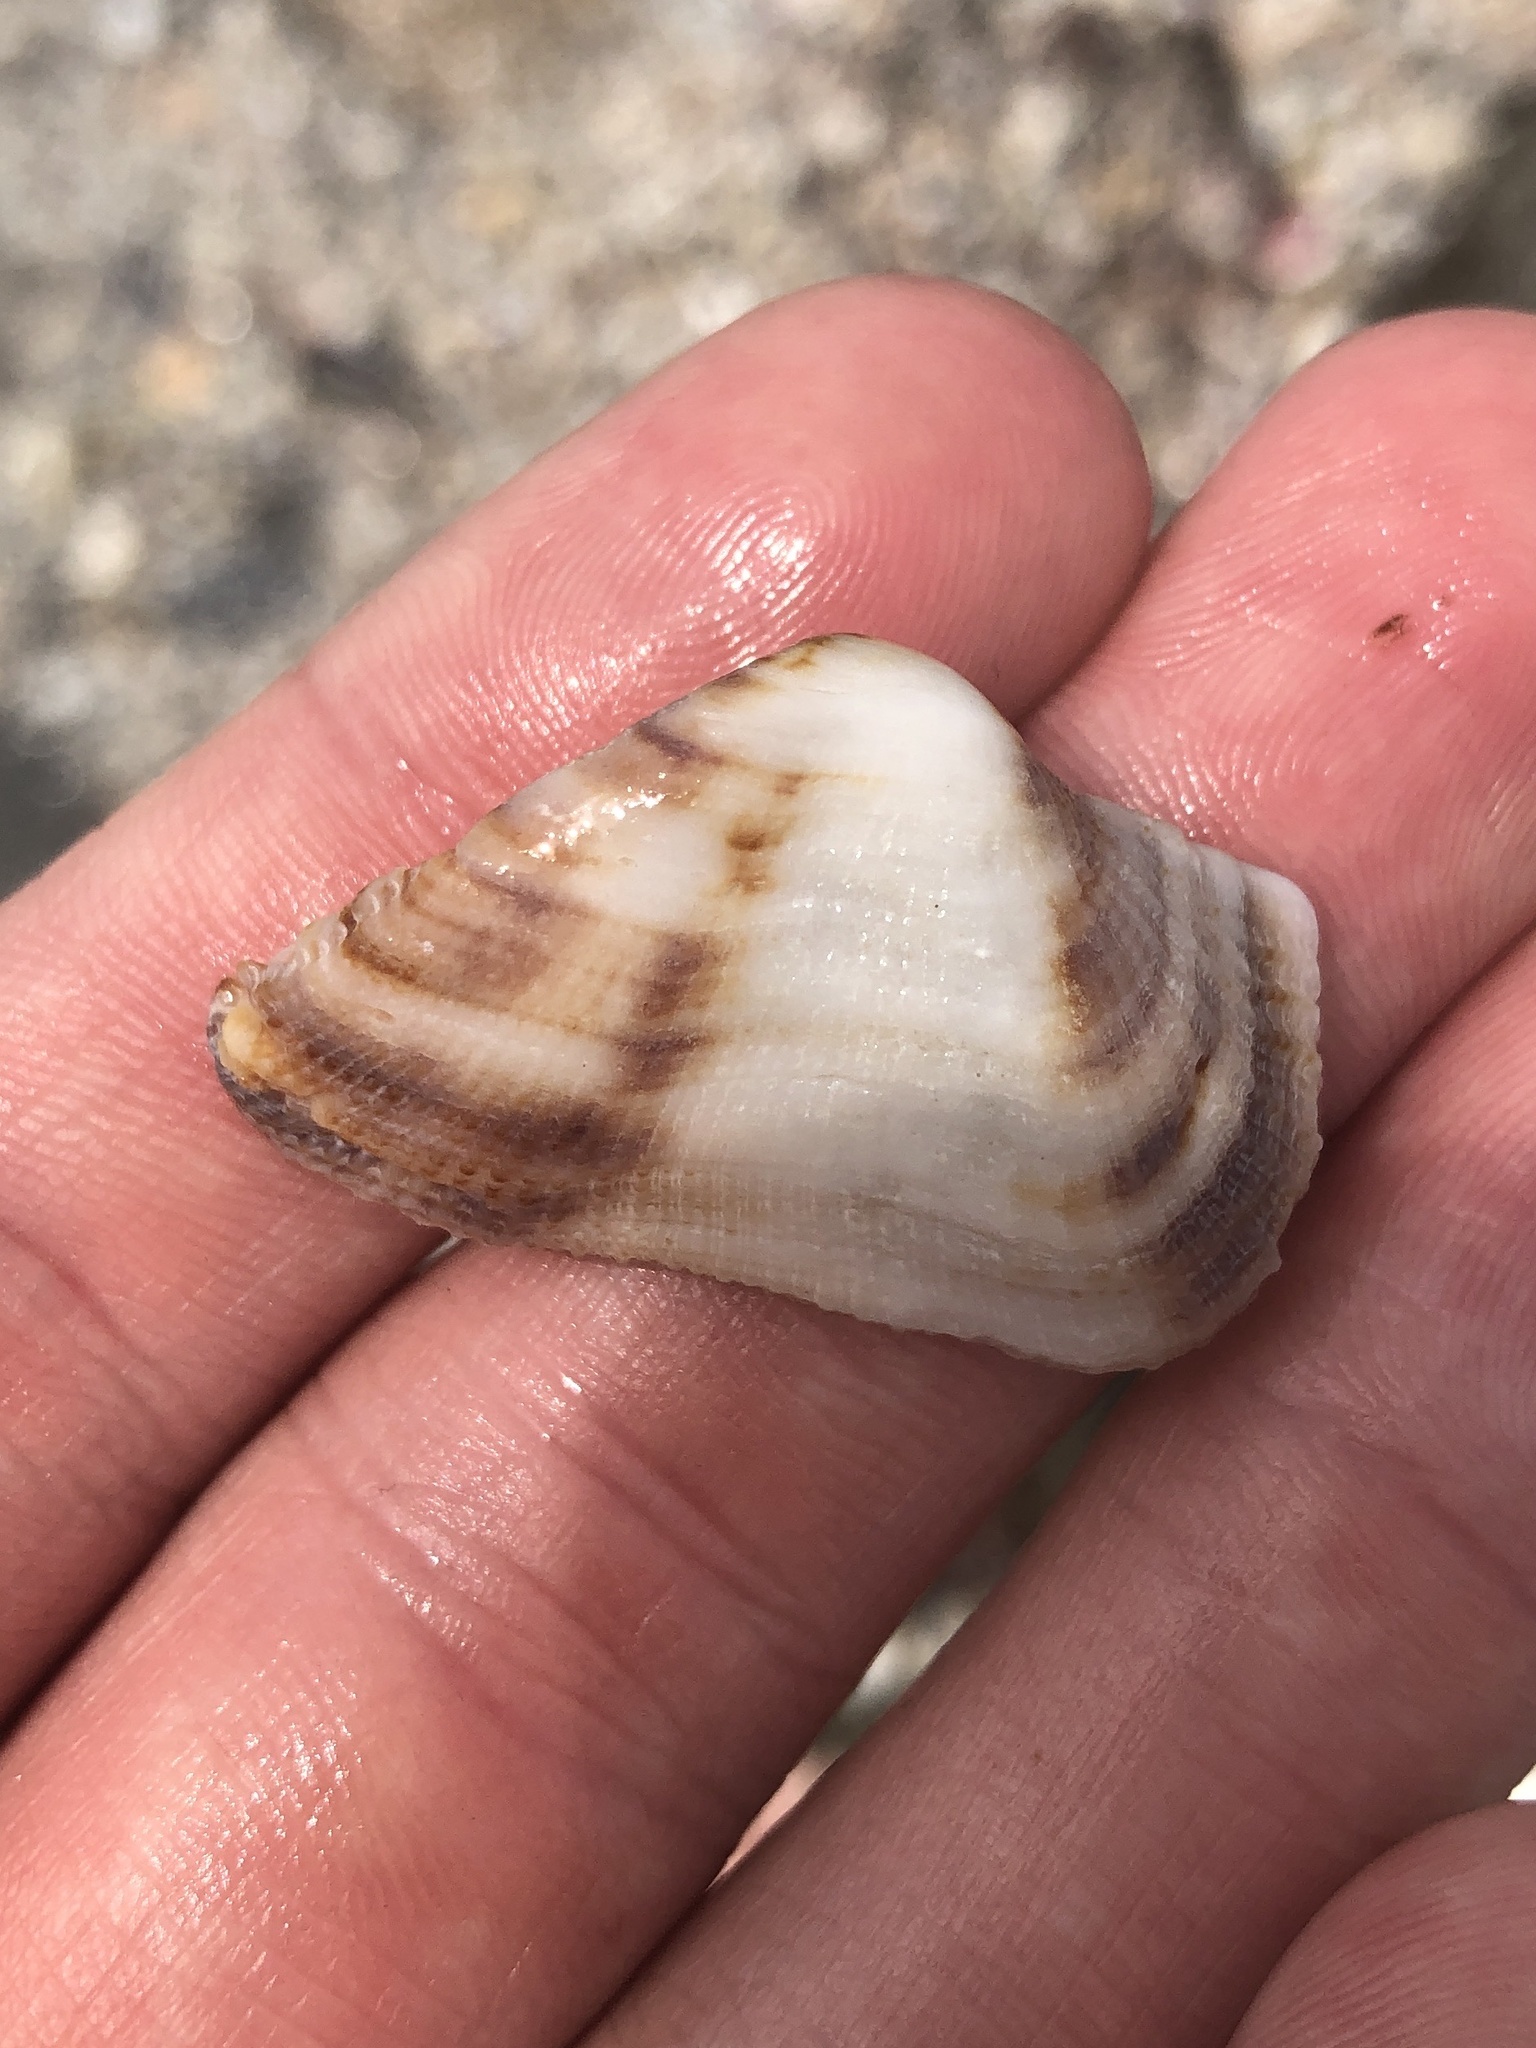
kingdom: Animalia
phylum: Mollusca
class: Bivalvia
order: Arcida
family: Arcidae
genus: Lamarcka
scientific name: Lamarcka imbricata
